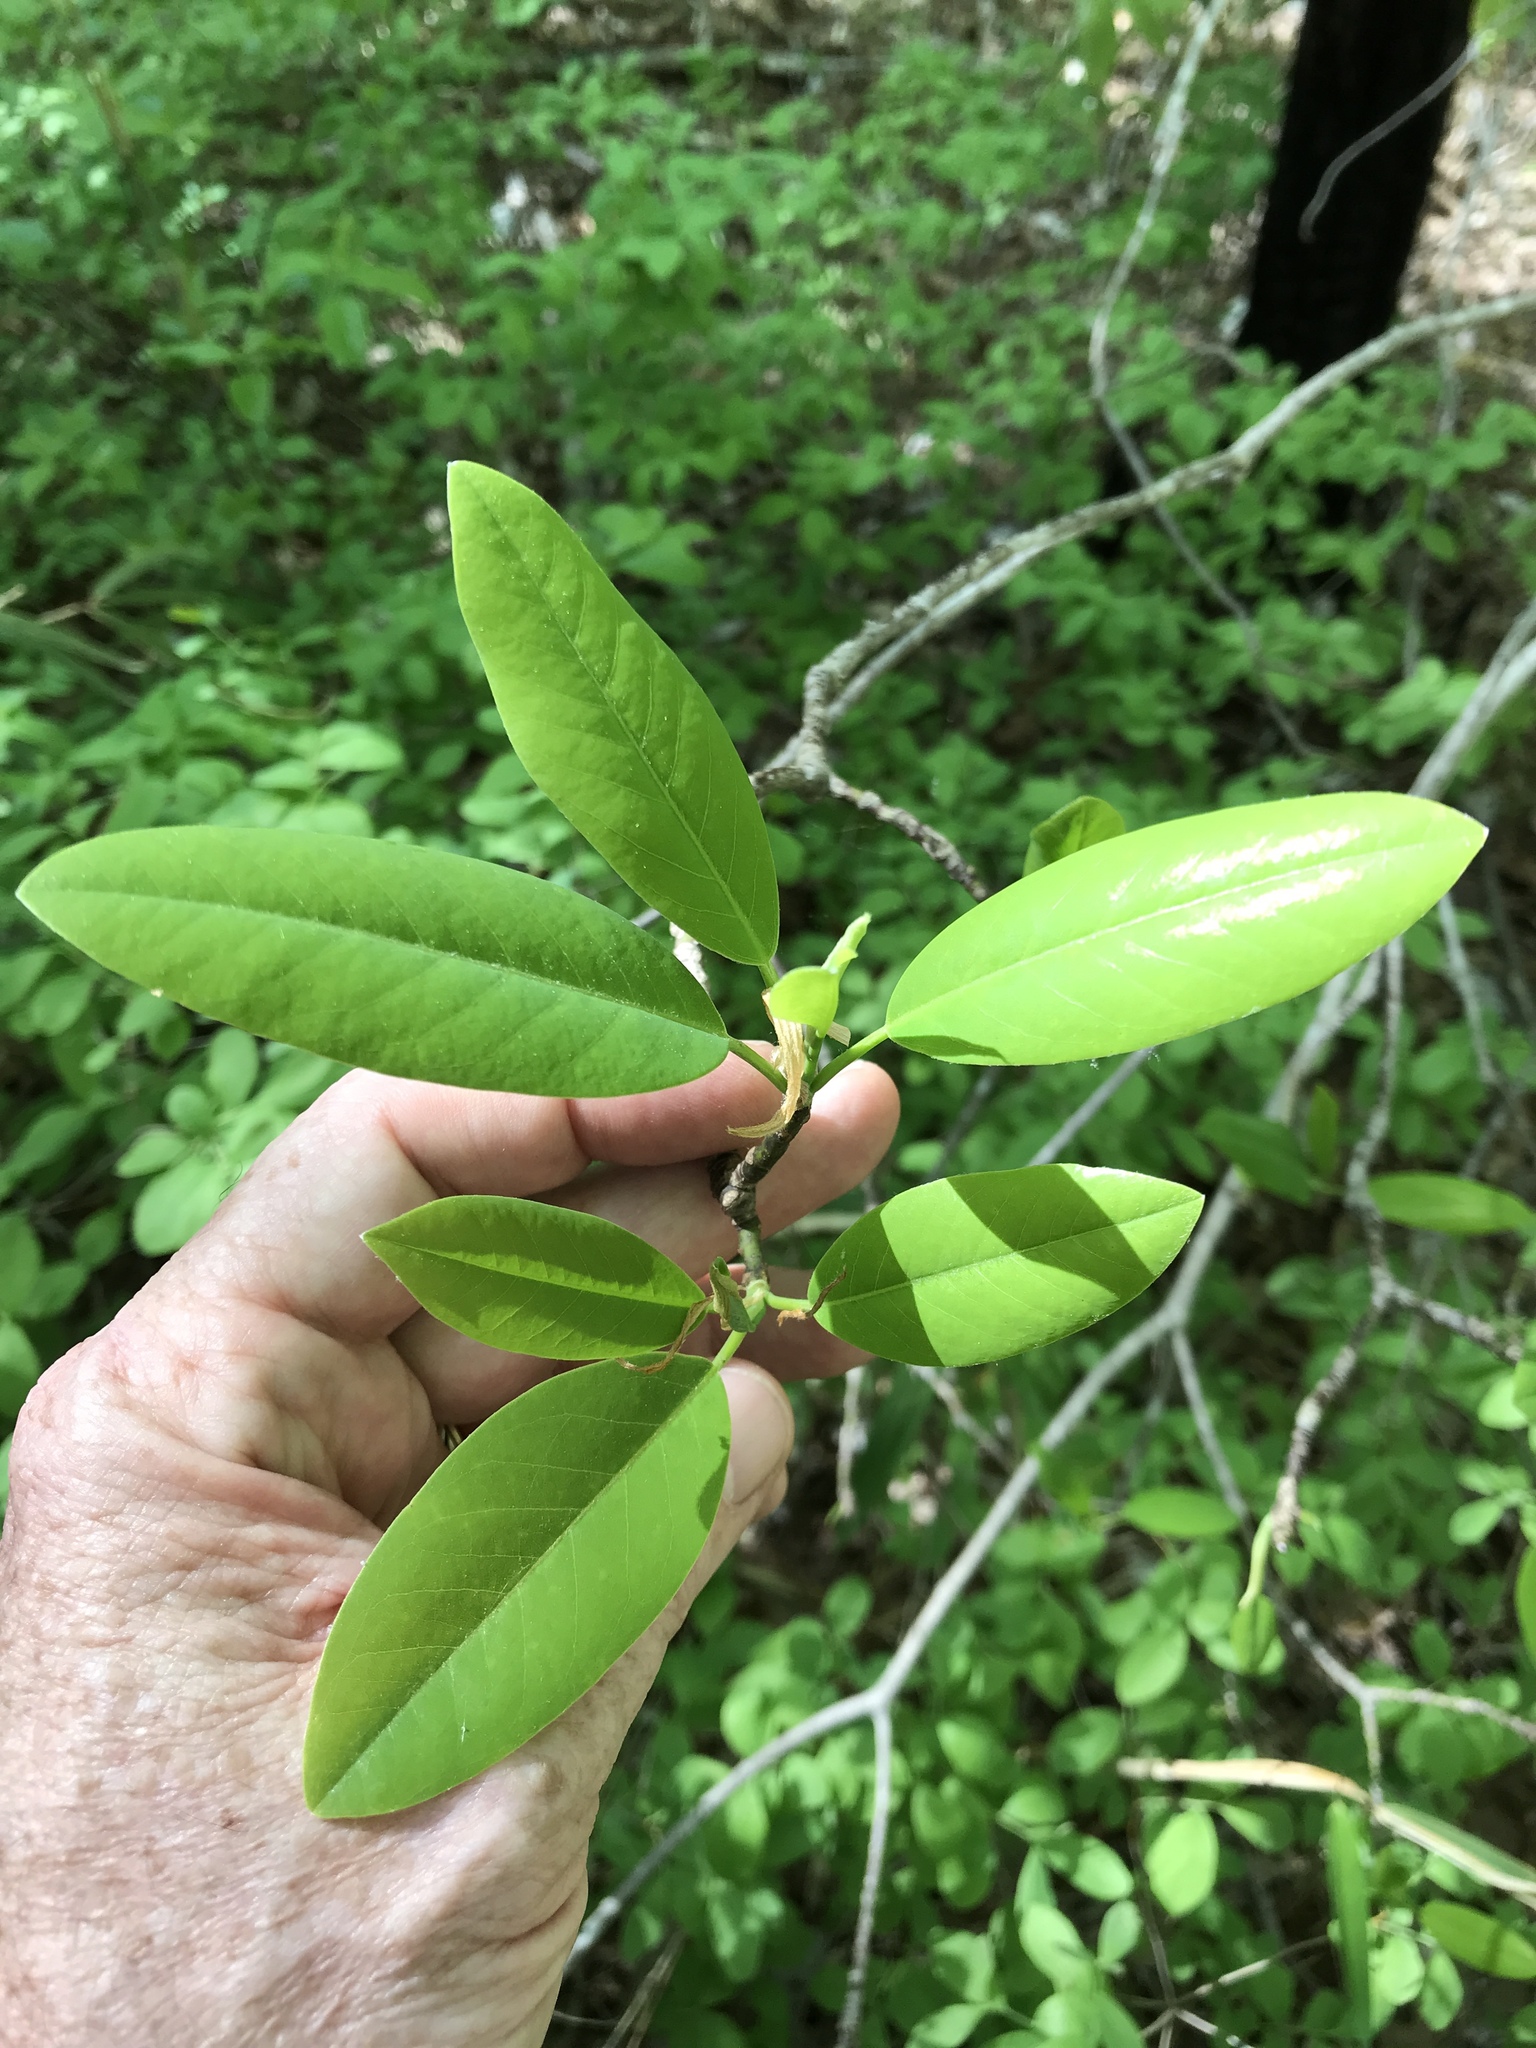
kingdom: Plantae
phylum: Tracheophyta
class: Magnoliopsida
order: Magnoliales
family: Magnoliaceae
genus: Magnolia
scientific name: Magnolia virginiana
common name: Swamp bay
